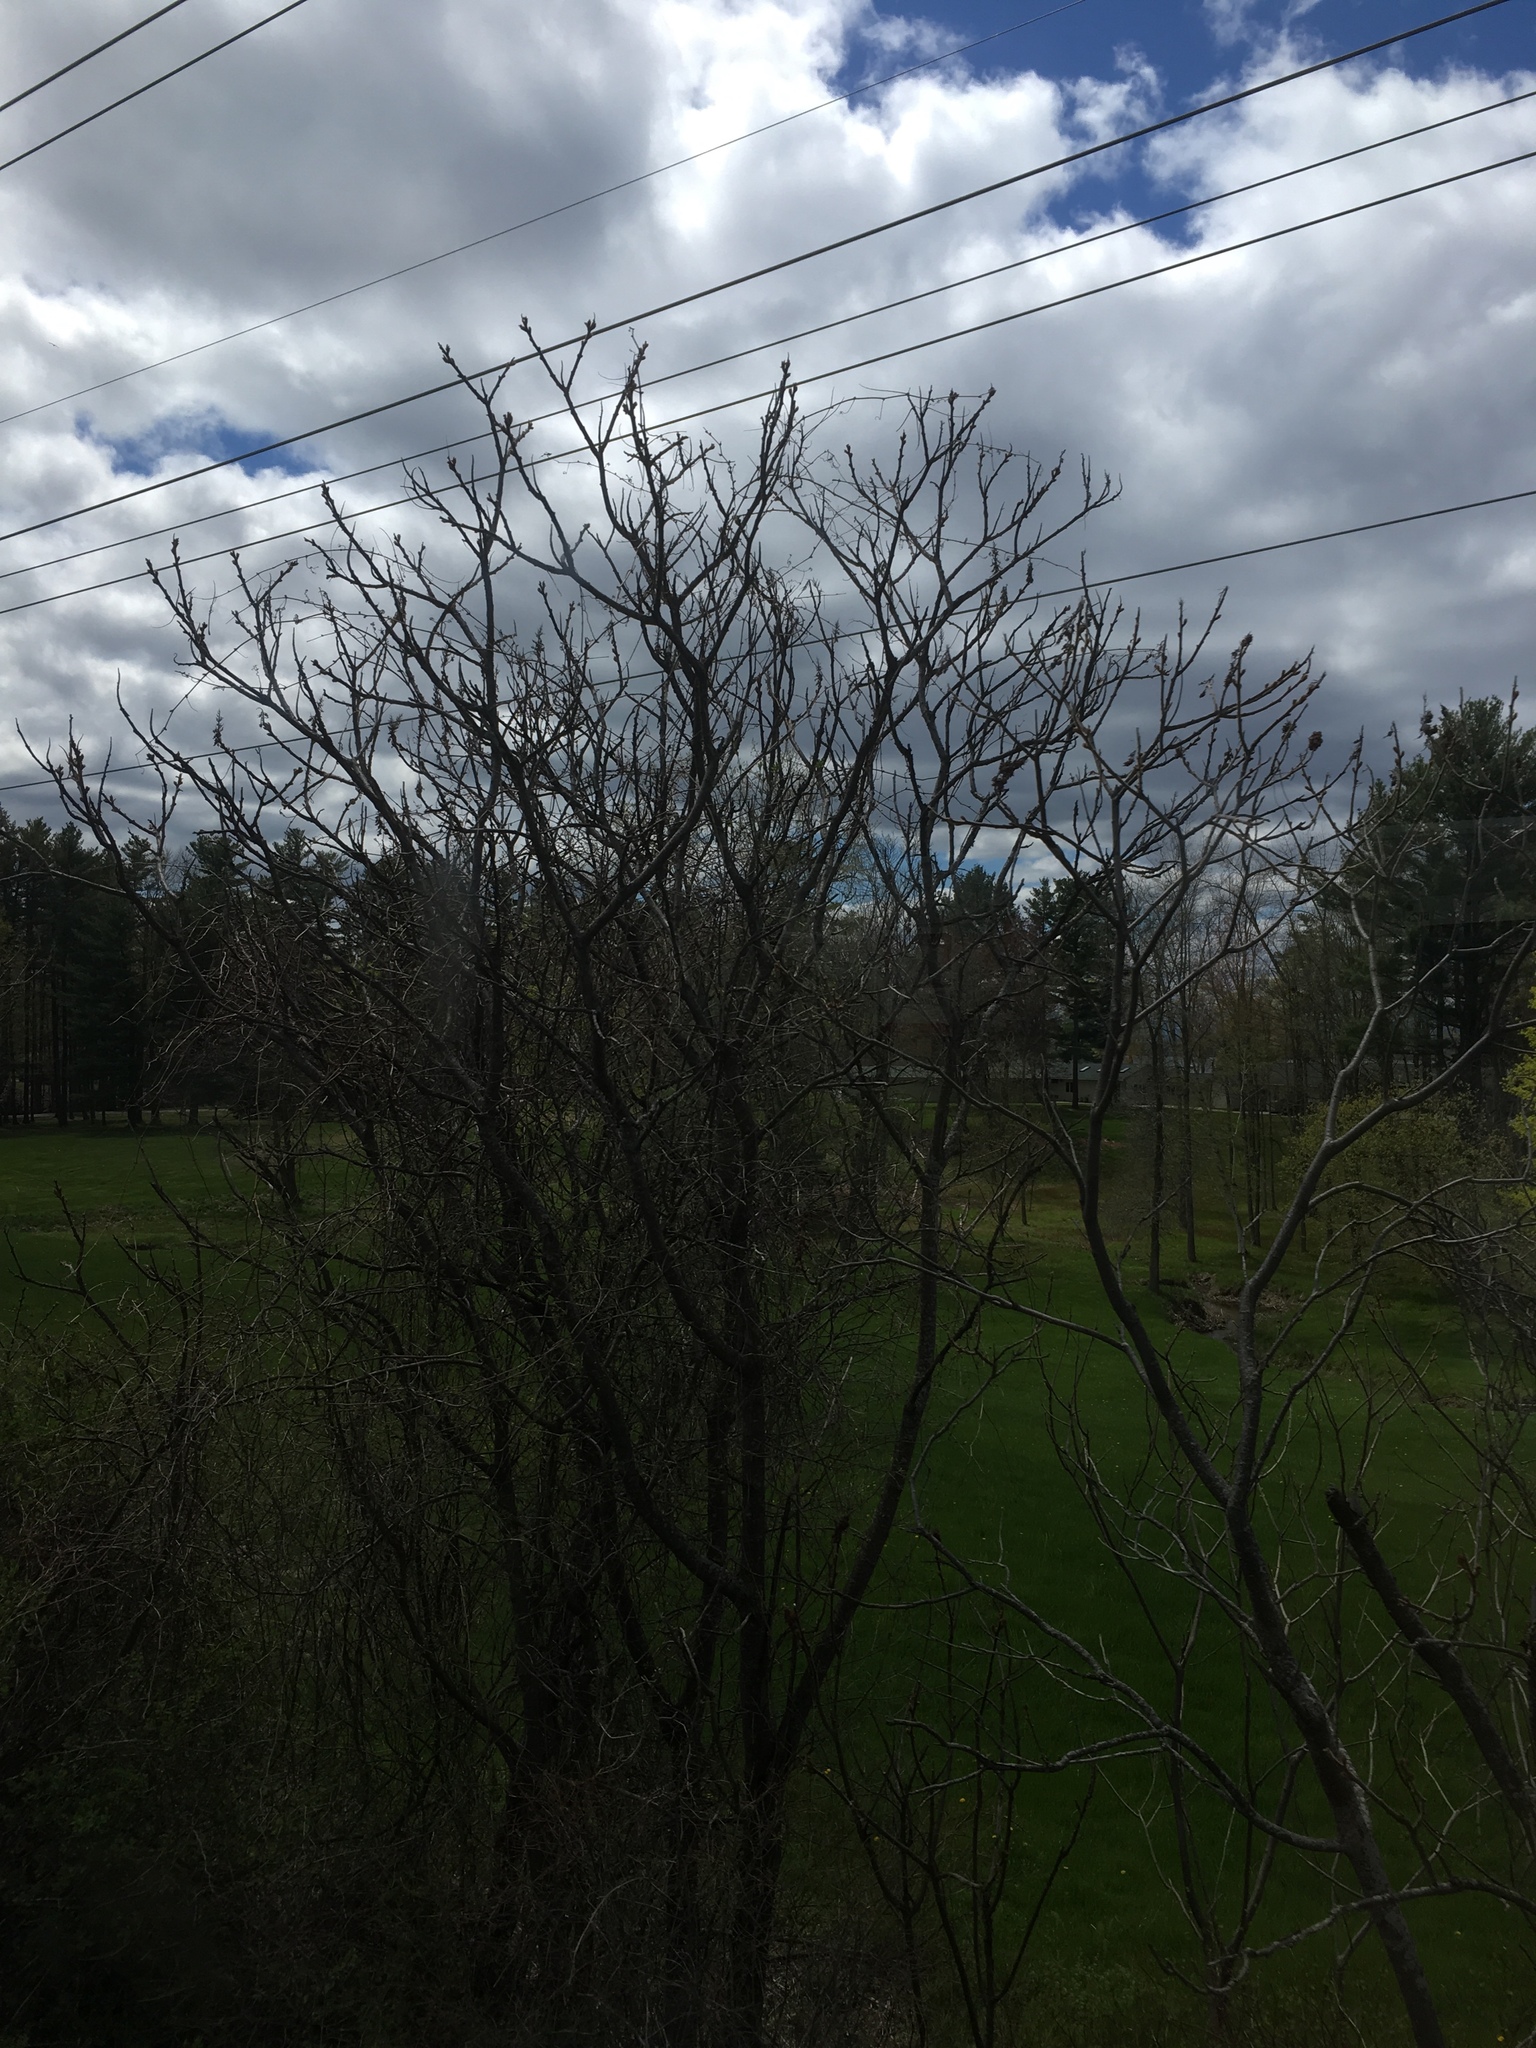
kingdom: Plantae
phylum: Tracheophyta
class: Magnoliopsida
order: Sapindales
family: Anacardiaceae
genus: Rhus
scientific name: Rhus typhina
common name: Staghorn sumac
